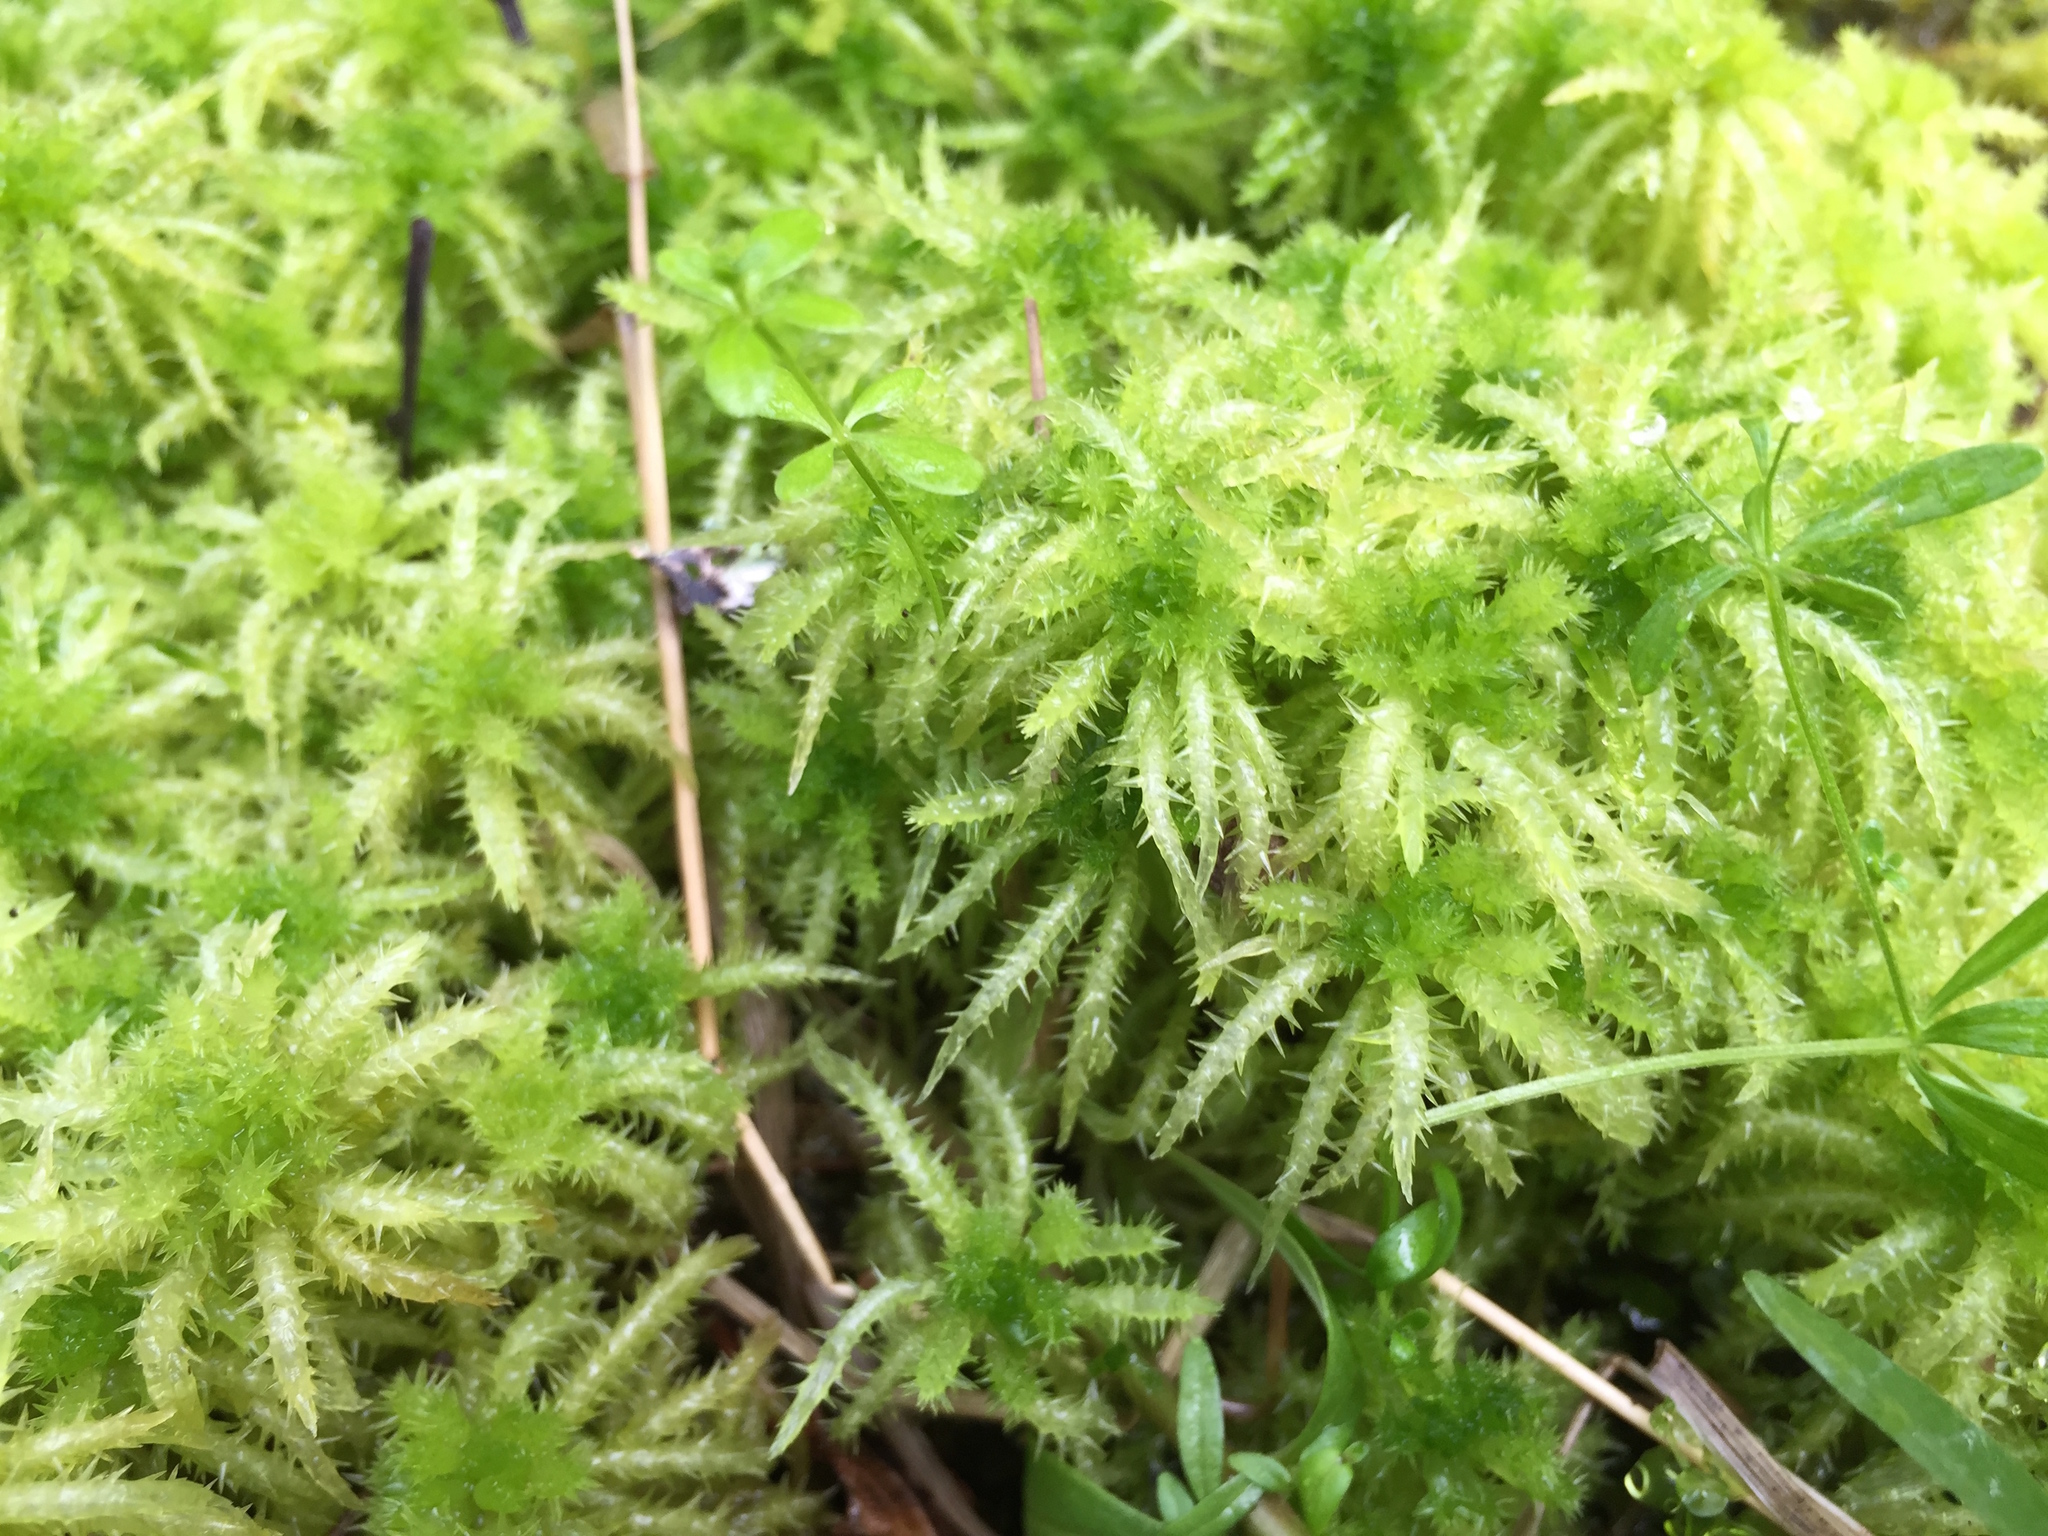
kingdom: Plantae
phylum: Bryophyta
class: Sphagnopsida
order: Sphagnales
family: Sphagnaceae
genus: Sphagnum
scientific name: Sphagnum squarrosum
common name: Shaggy peat moss
